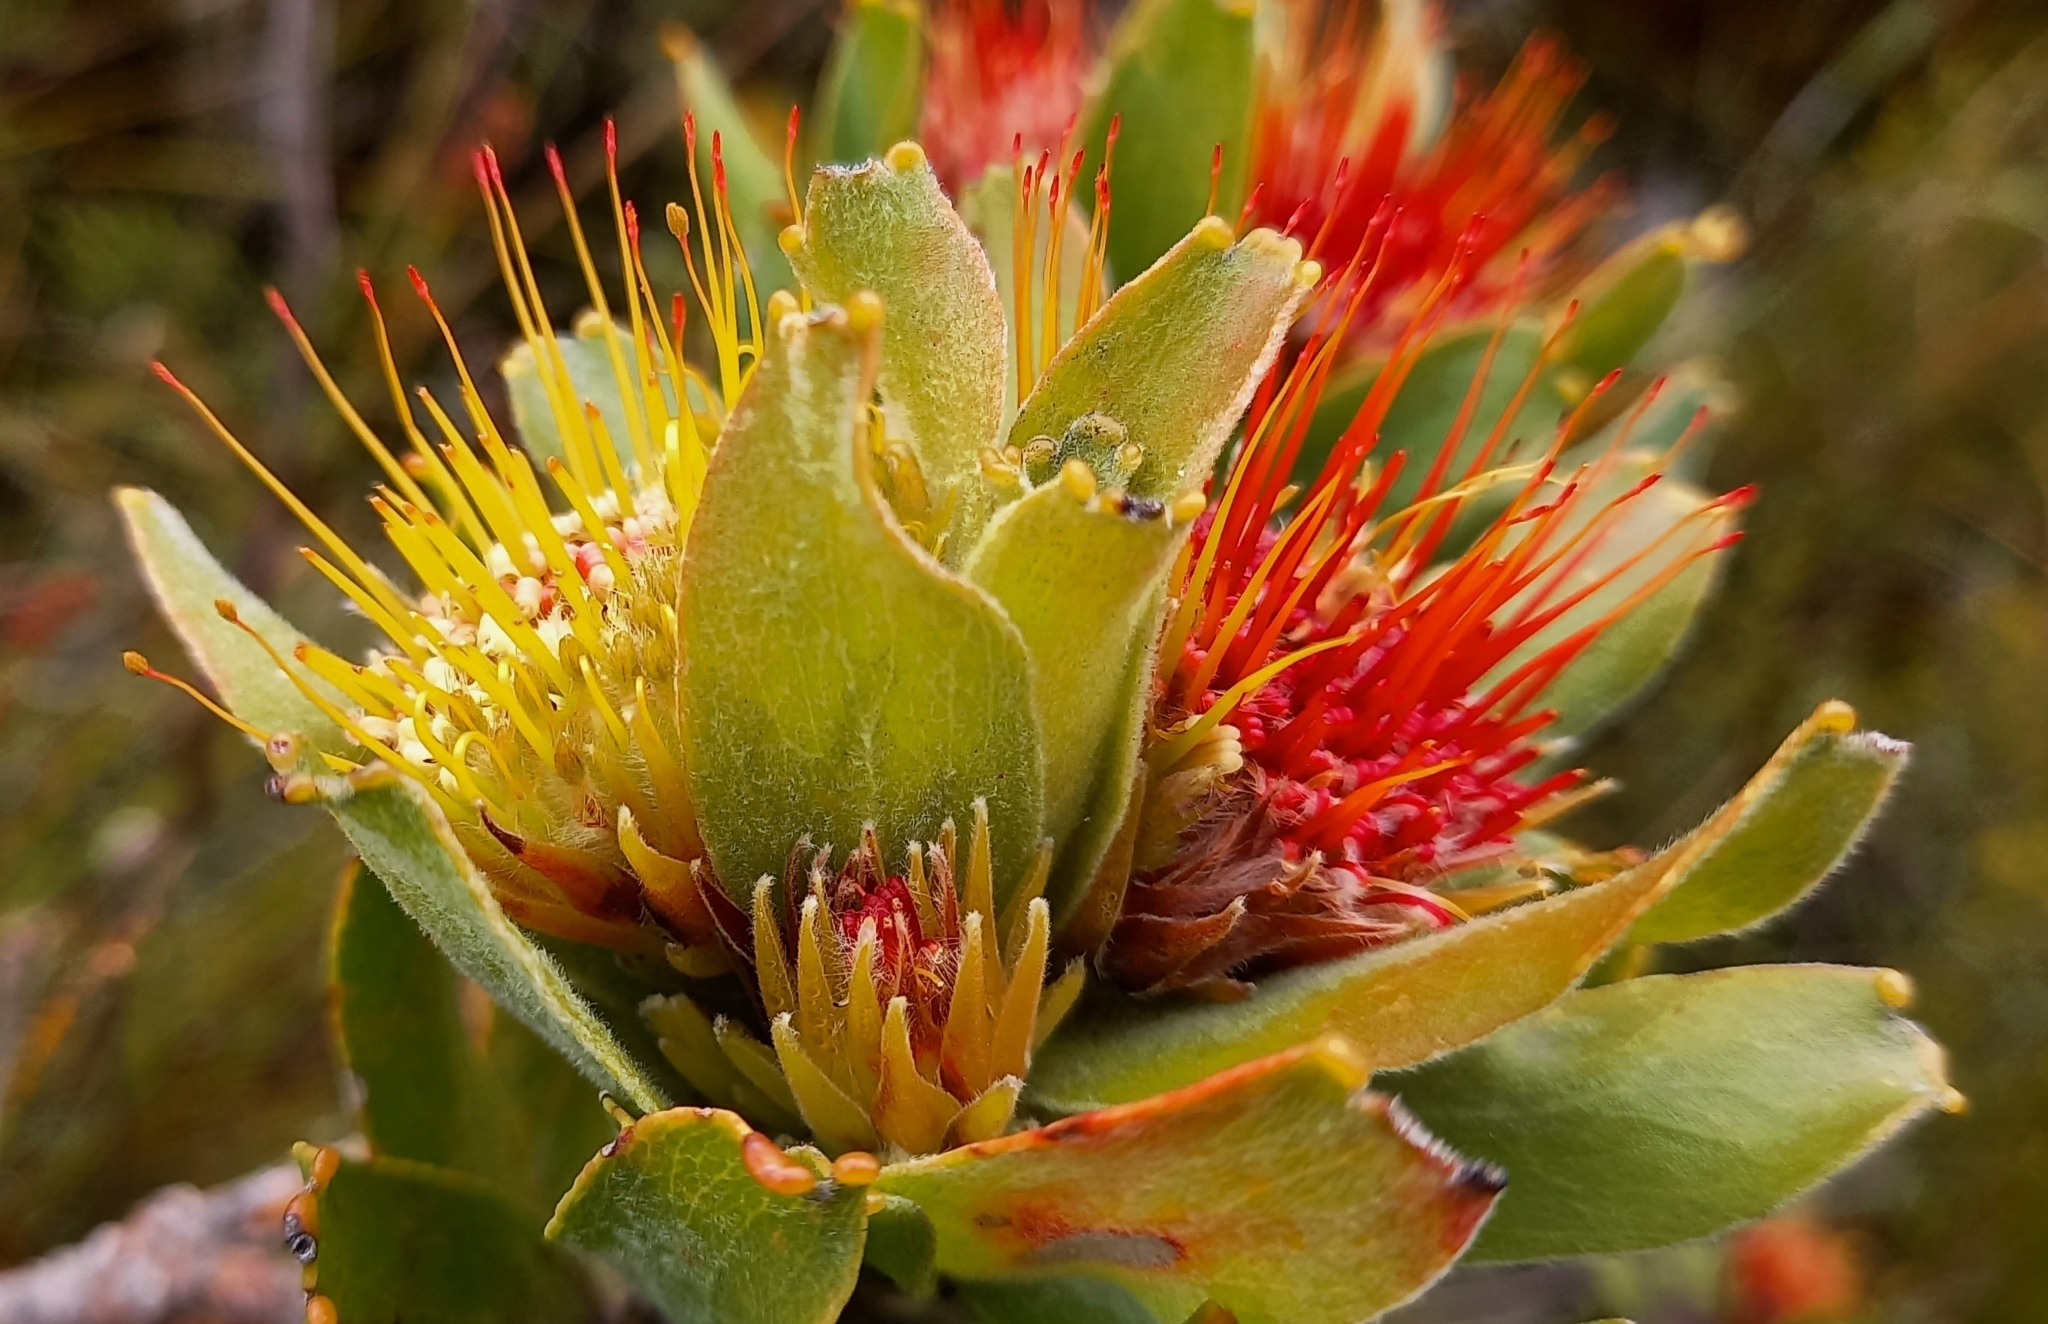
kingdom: Plantae
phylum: Tracheophyta
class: Magnoliopsida
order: Proteales
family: Proteaceae
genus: Leucospermum
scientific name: Leucospermum oleifolium
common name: Matches
